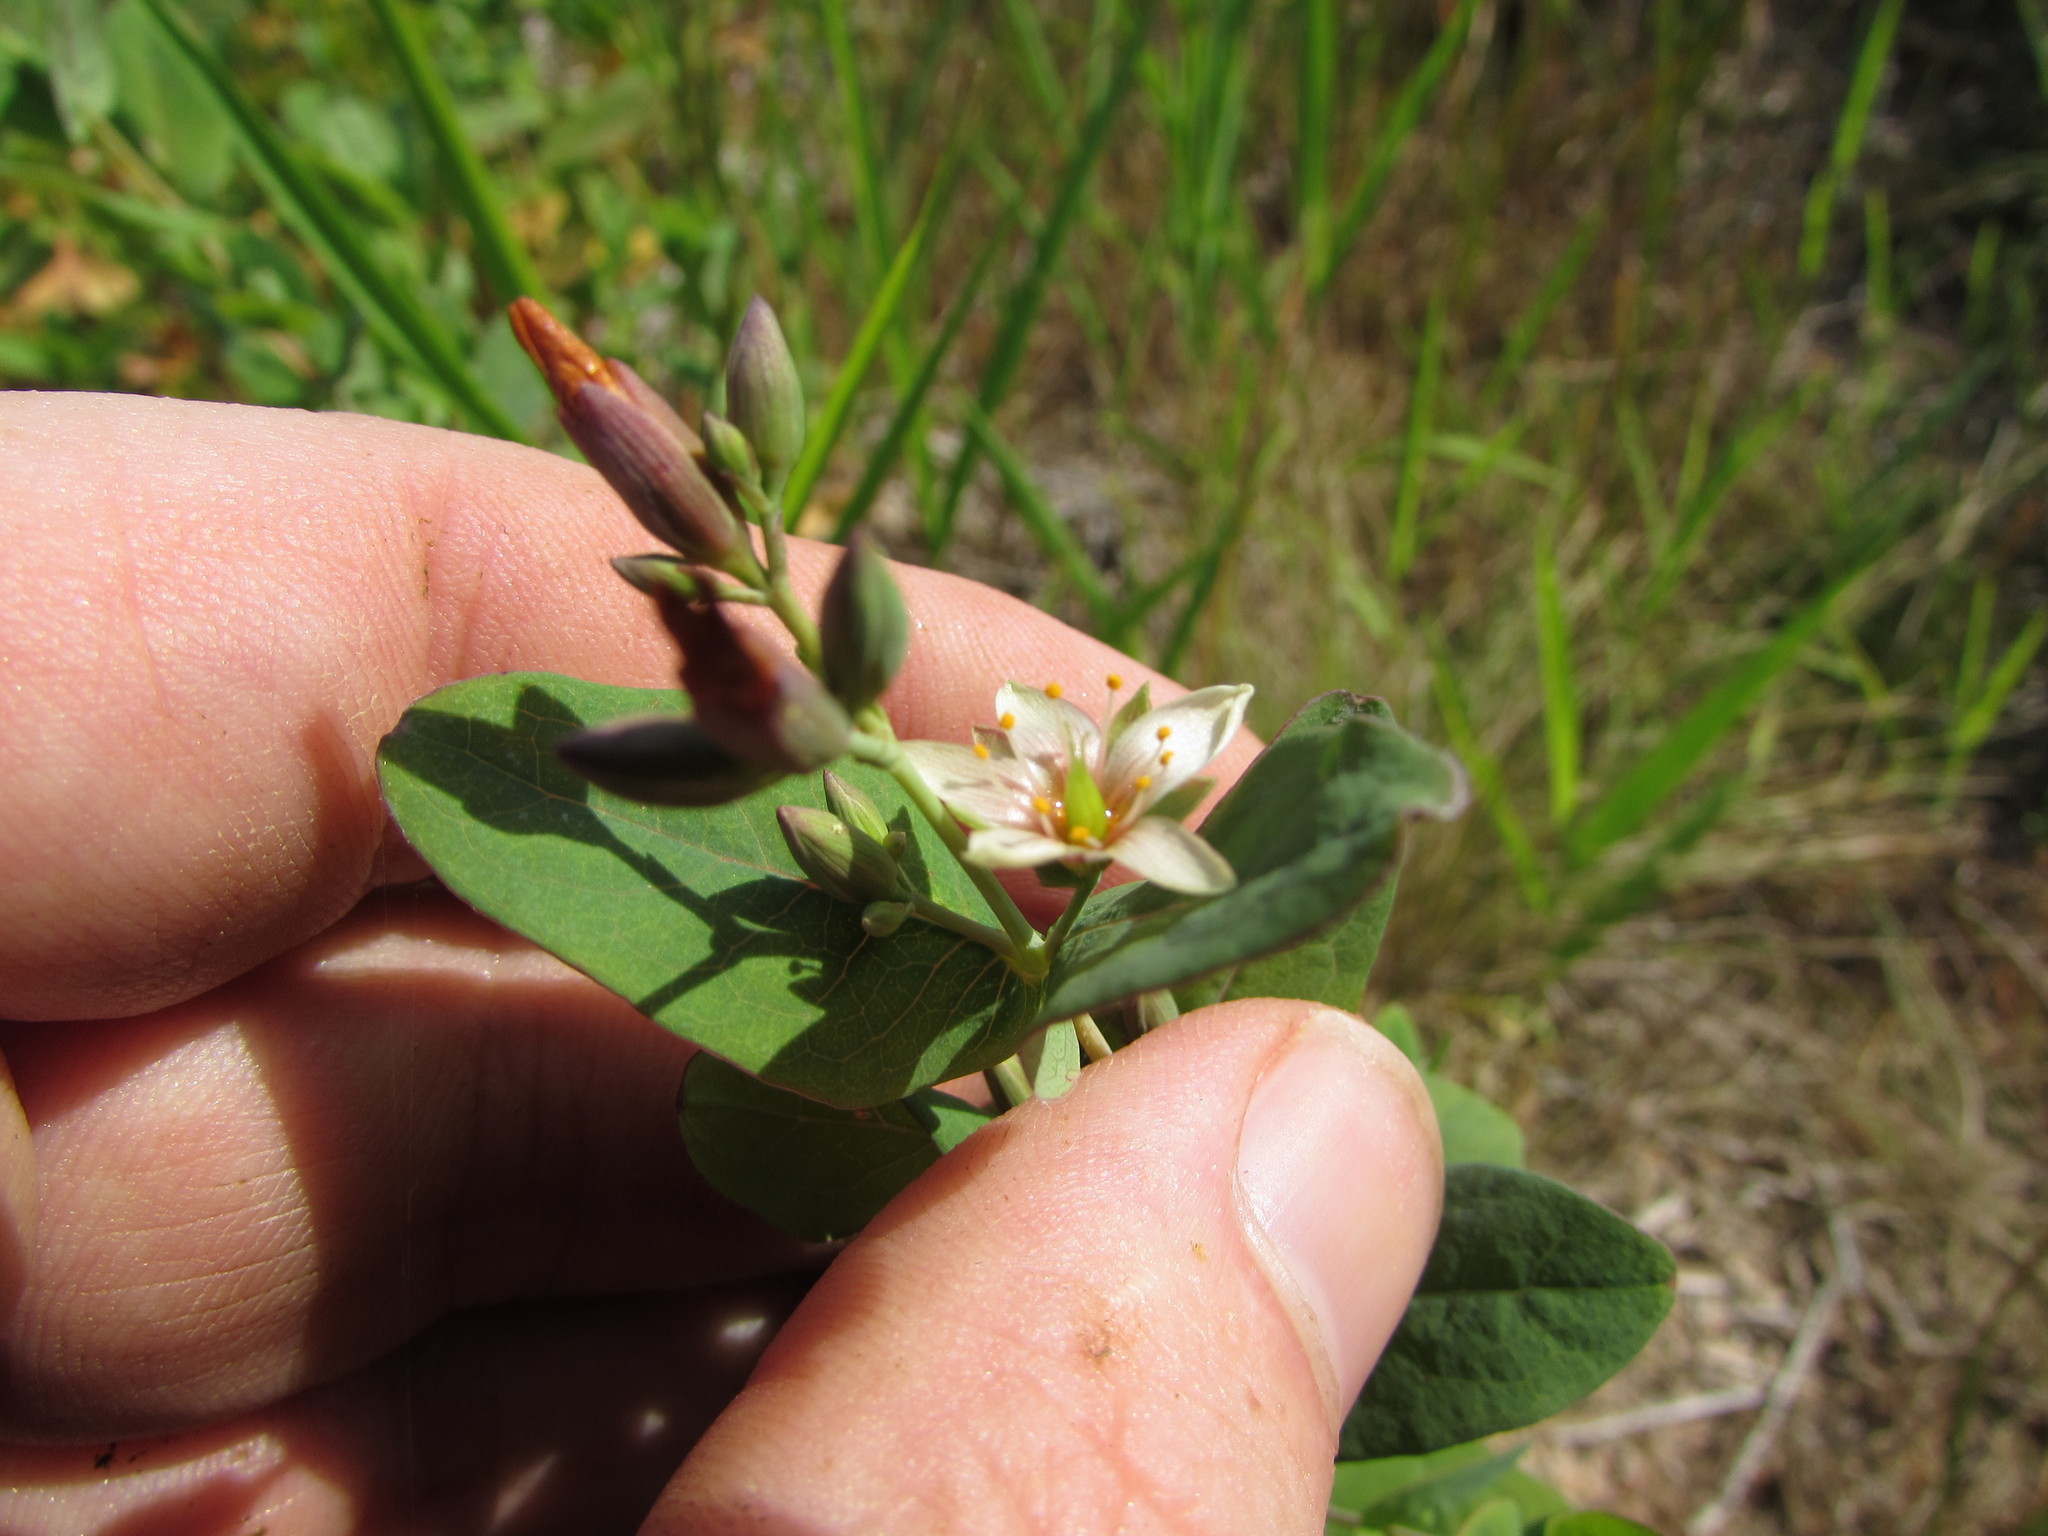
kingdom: Plantae
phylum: Tracheophyta
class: Magnoliopsida
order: Malpighiales
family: Hypericaceae
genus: Triadenum
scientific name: Triadenum virginicum
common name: Marsh st. john's-wort
